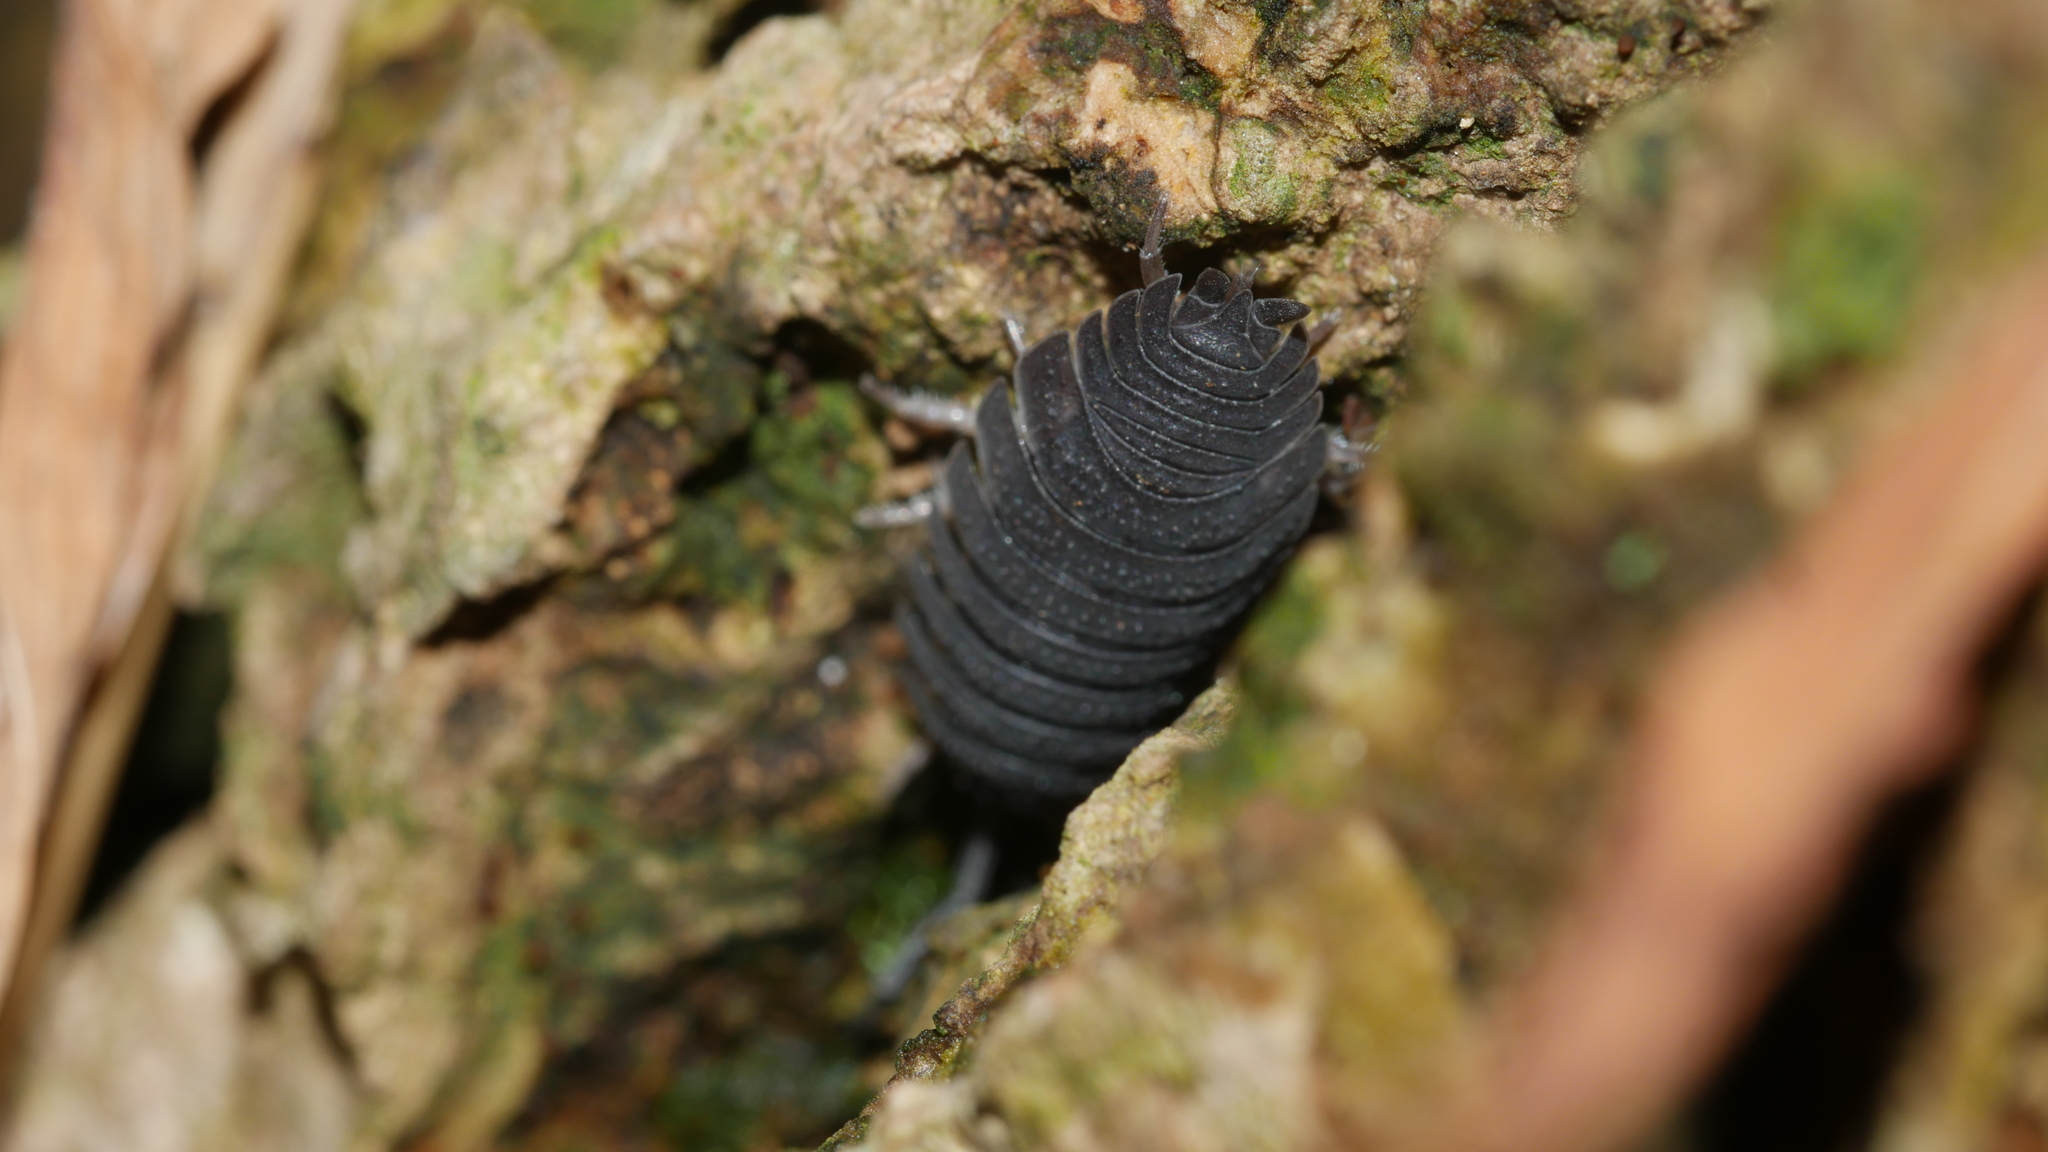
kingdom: Animalia
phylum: Arthropoda
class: Malacostraca
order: Isopoda
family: Porcellionidae
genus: Porcellio
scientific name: Porcellio scaber
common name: Common rough woodlouse
